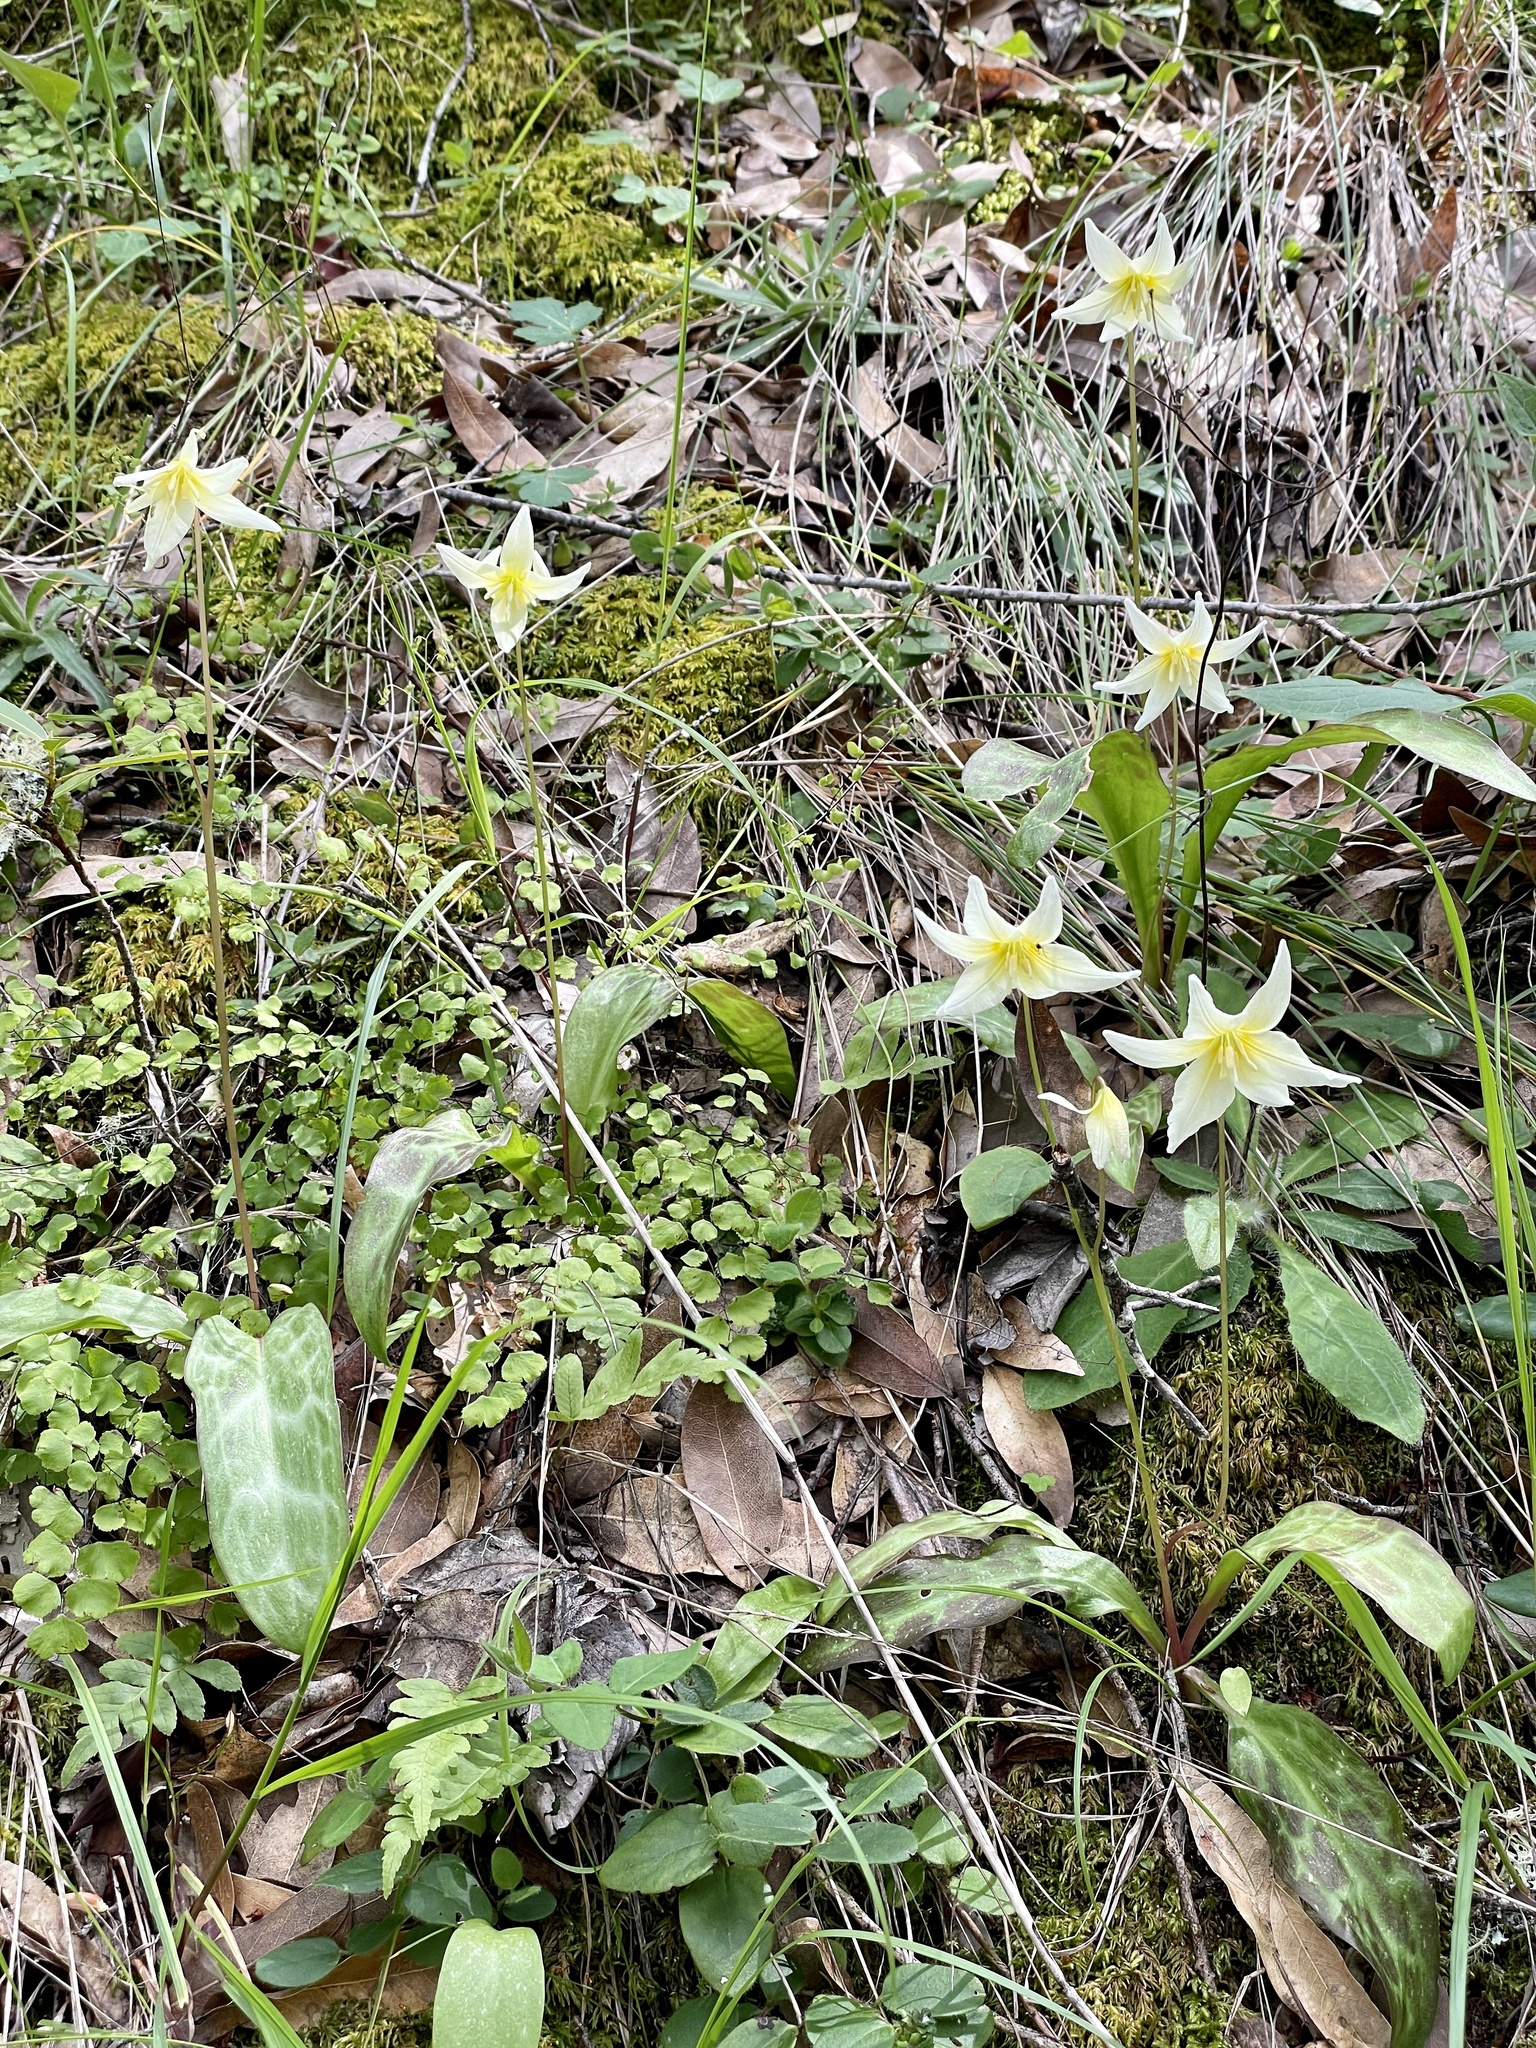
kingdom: Plantae
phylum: Tracheophyta
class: Liliopsida
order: Liliales
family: Liliaceae
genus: Erythronium
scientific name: Erythronium californicum
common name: Fawn-lily
